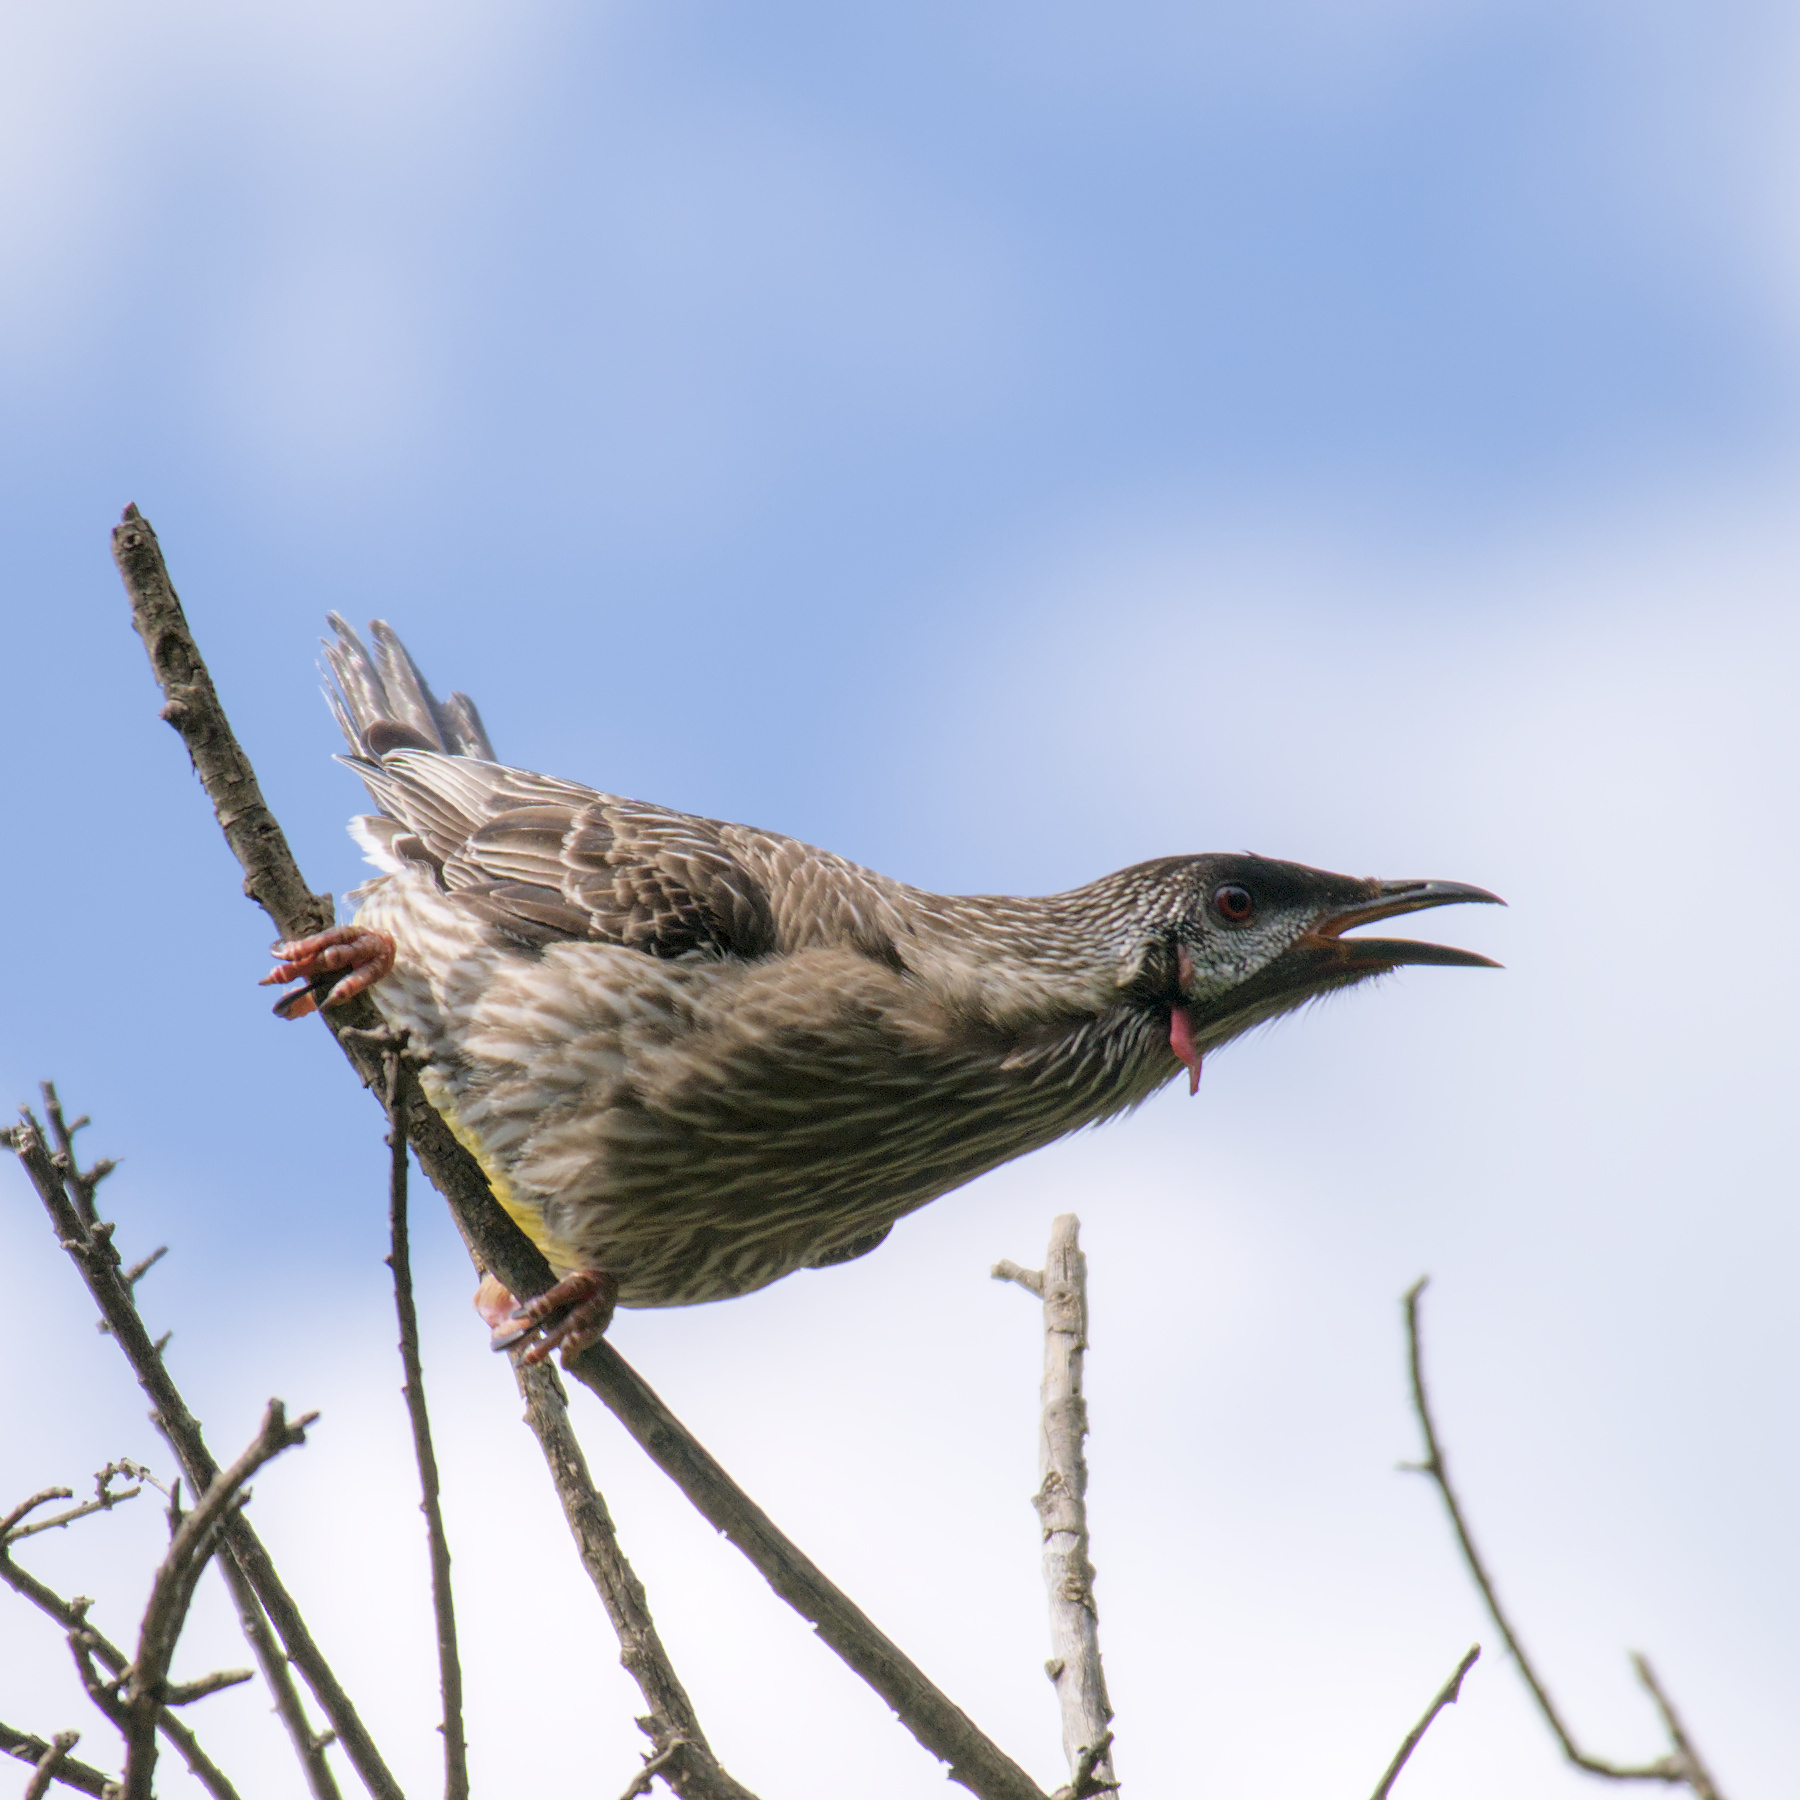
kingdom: Animalia
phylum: Chordata
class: Aves
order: Passeriformes
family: Meliphagidae
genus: Anthochaera
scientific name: Anthochaera carunculata
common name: Red wattlebird
